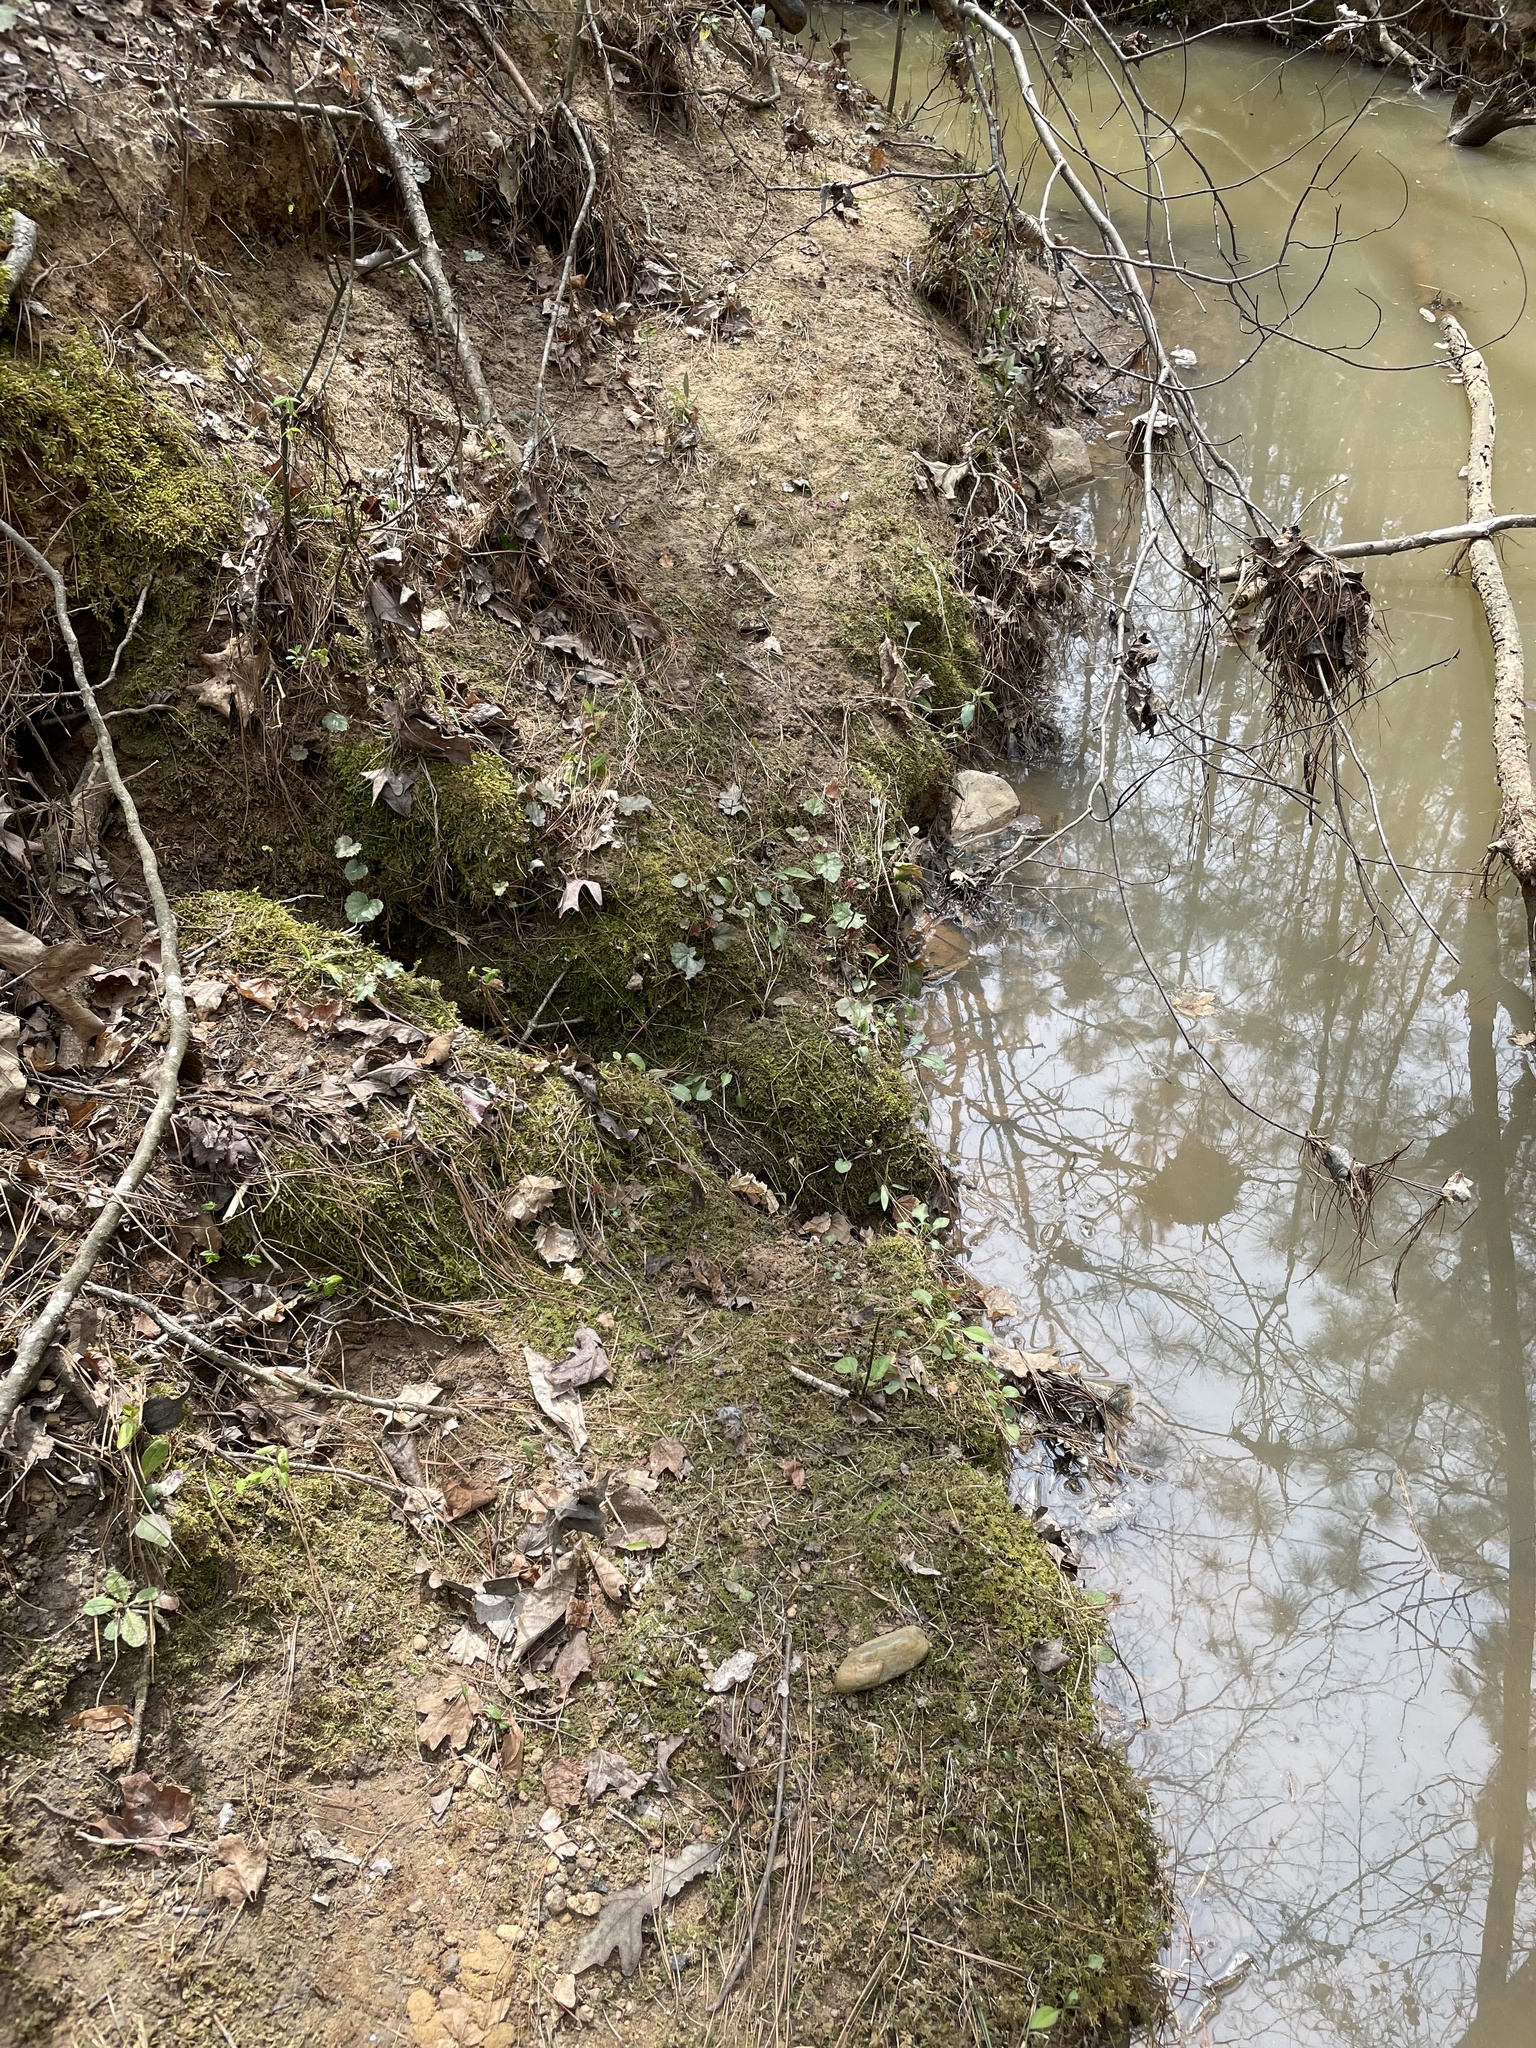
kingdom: Plantae
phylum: Tracheophyta
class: Magnoliopsida
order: Saxifragales
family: Saxifragaceae
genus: Heuchera
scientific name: Heuchera caroliniana
